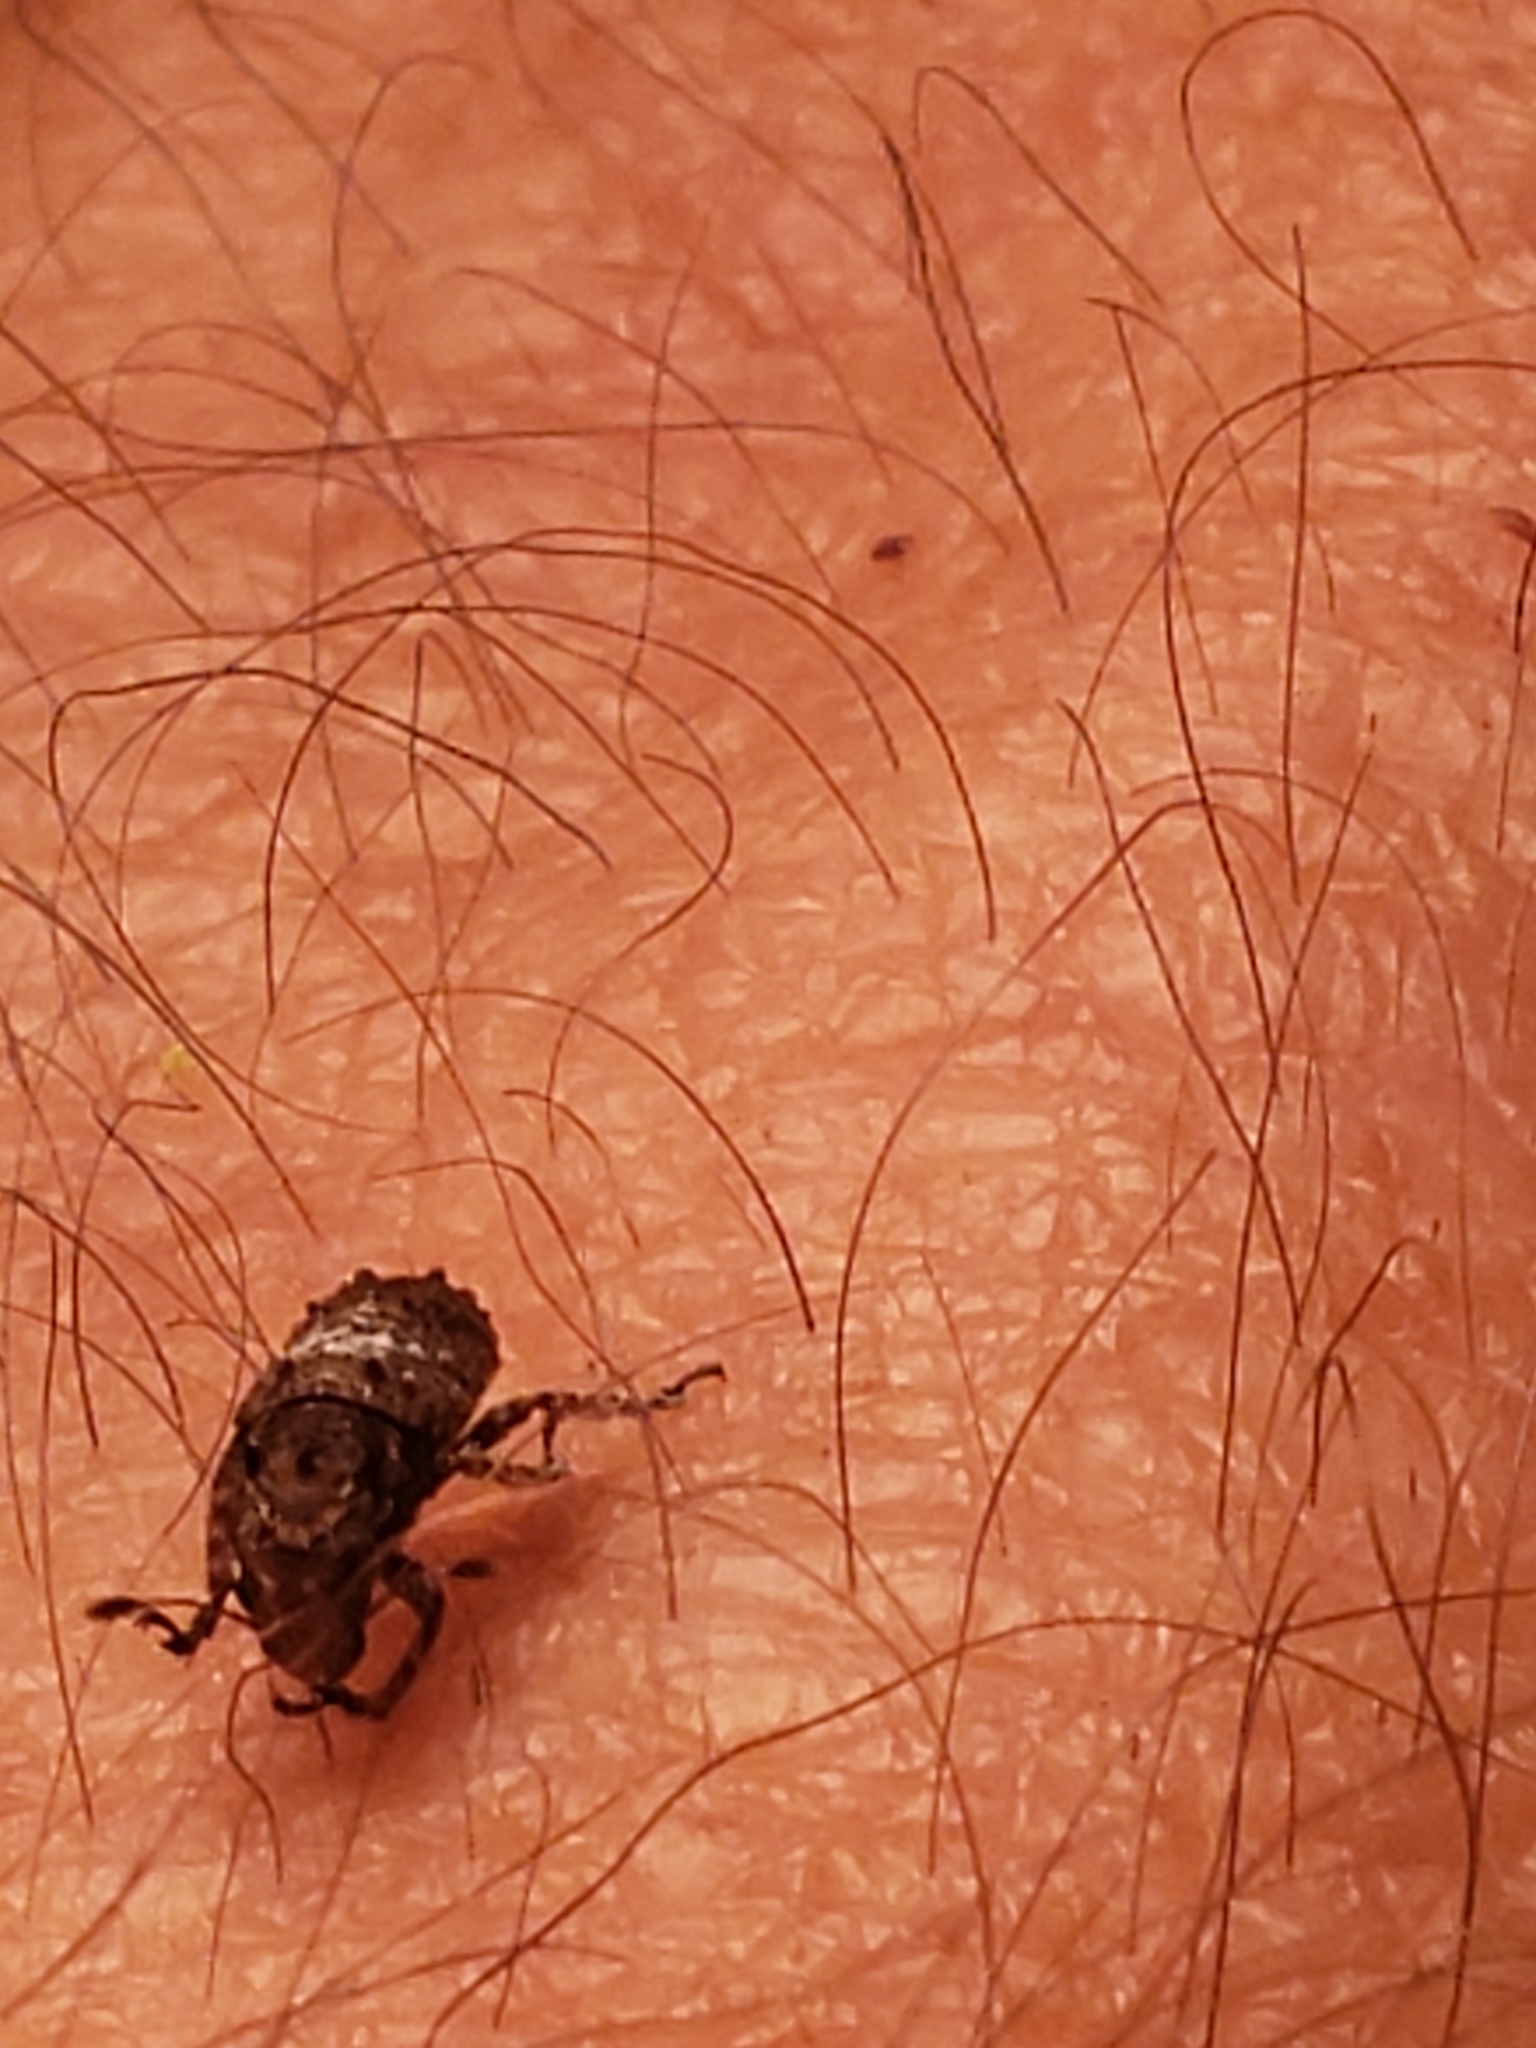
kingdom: Animalia
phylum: Arthropoda
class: Insecta
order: Coleoptera
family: Anthribidae
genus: Toxonotus
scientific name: Toxonotus cornutus
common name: Fungus weevil
